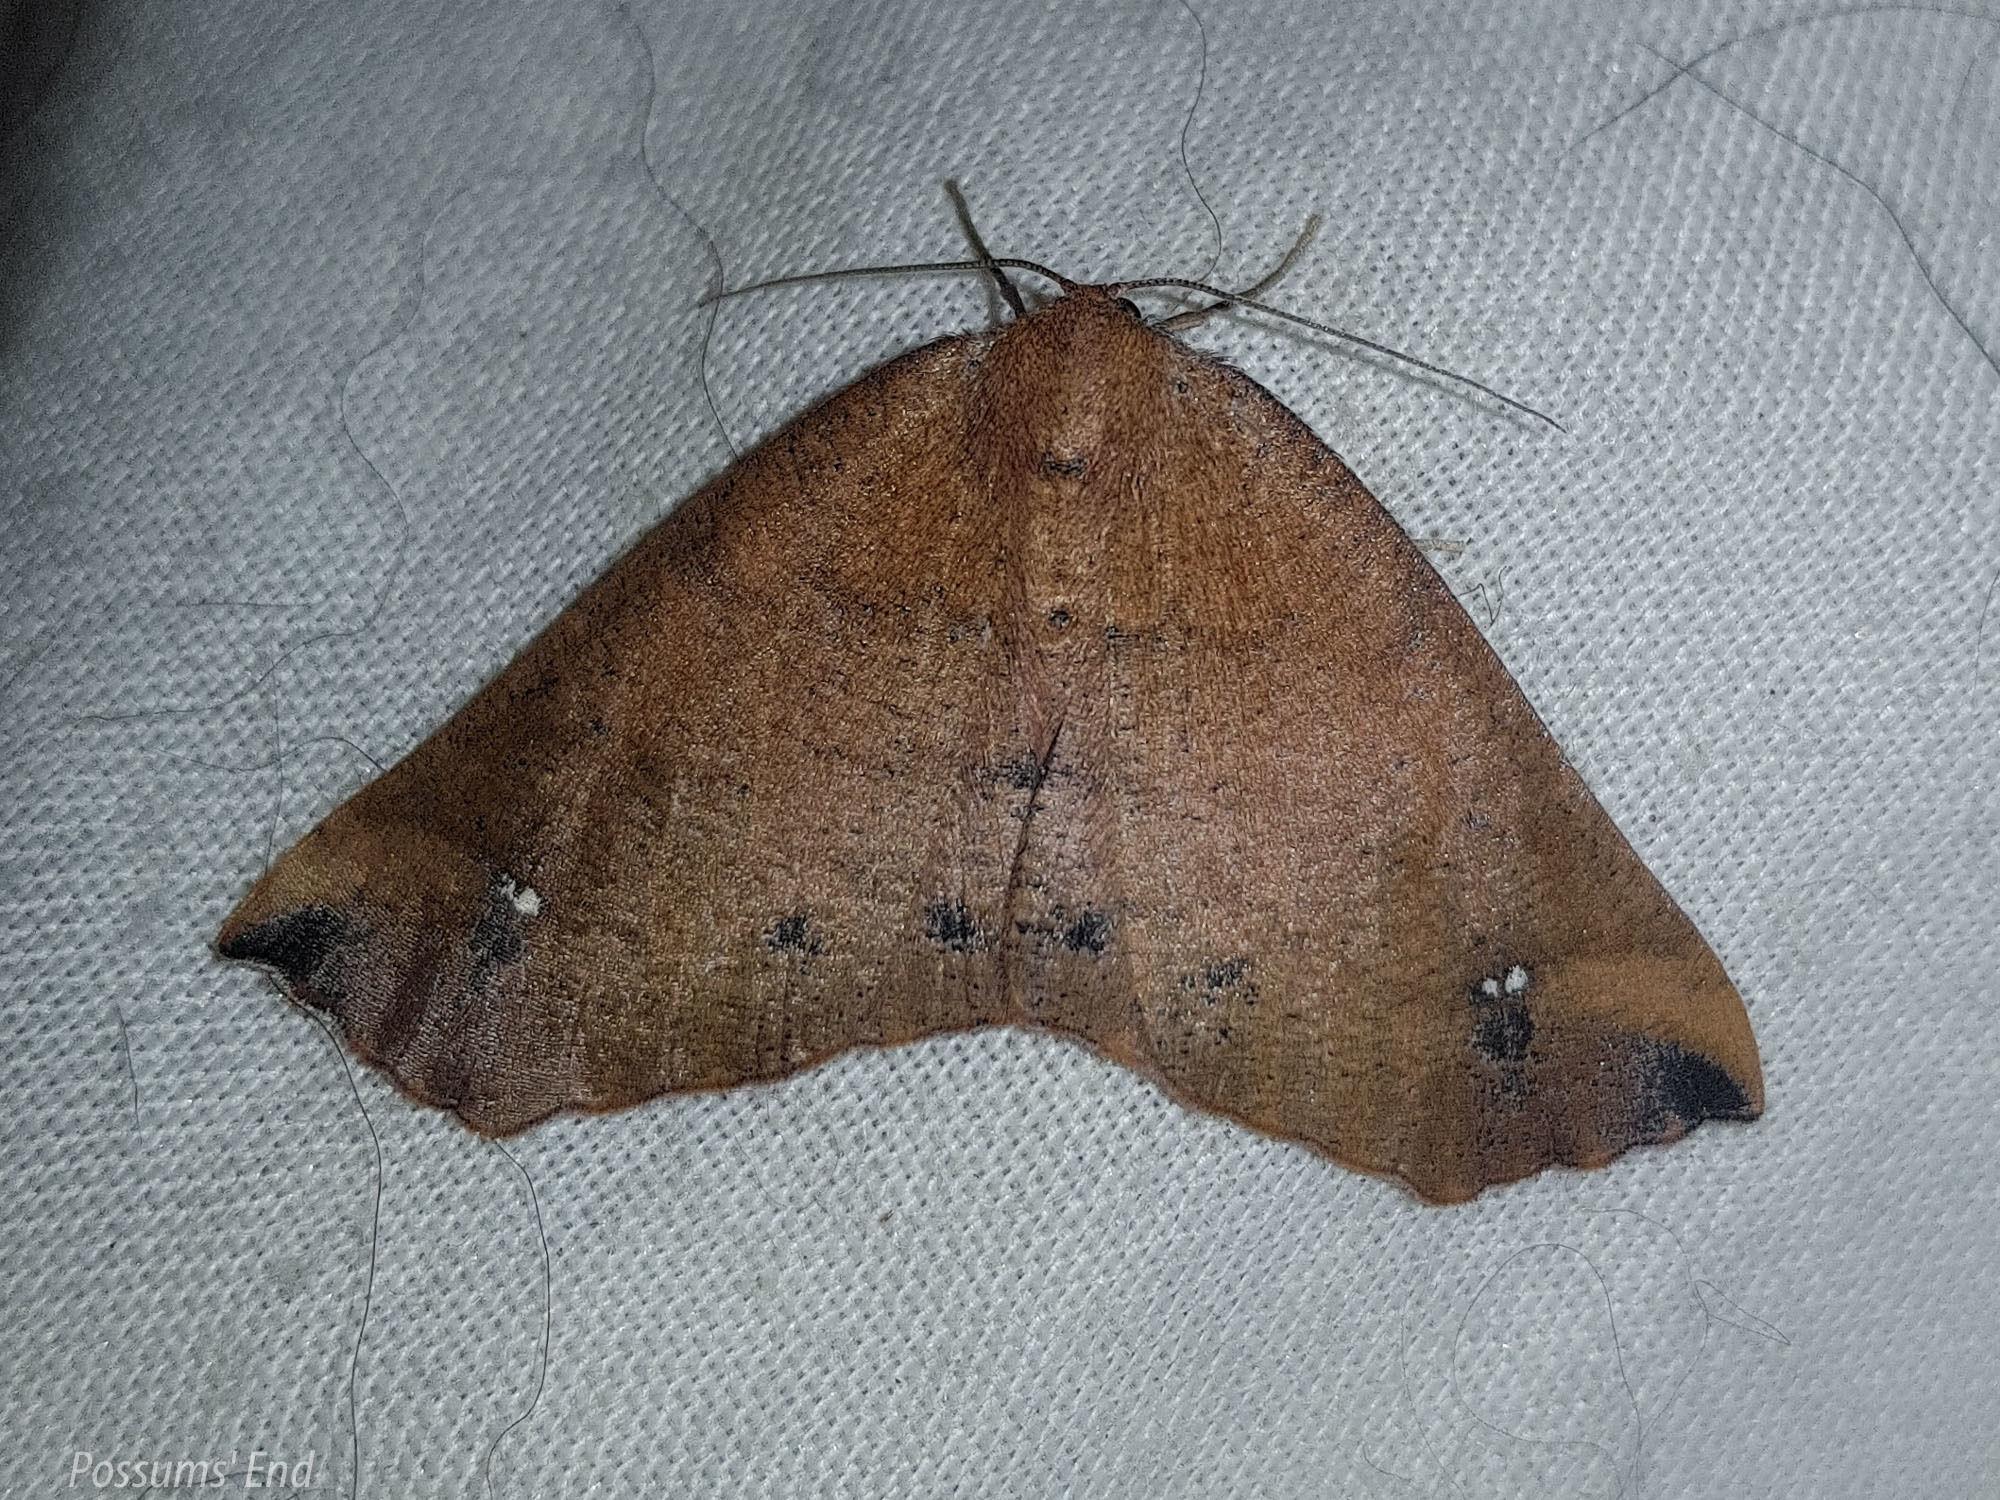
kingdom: Animalia
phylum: Arthropoda
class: Insecta
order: Lepidoptera
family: Geometridae
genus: Xyridacma
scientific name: Xyridacma ustaria
